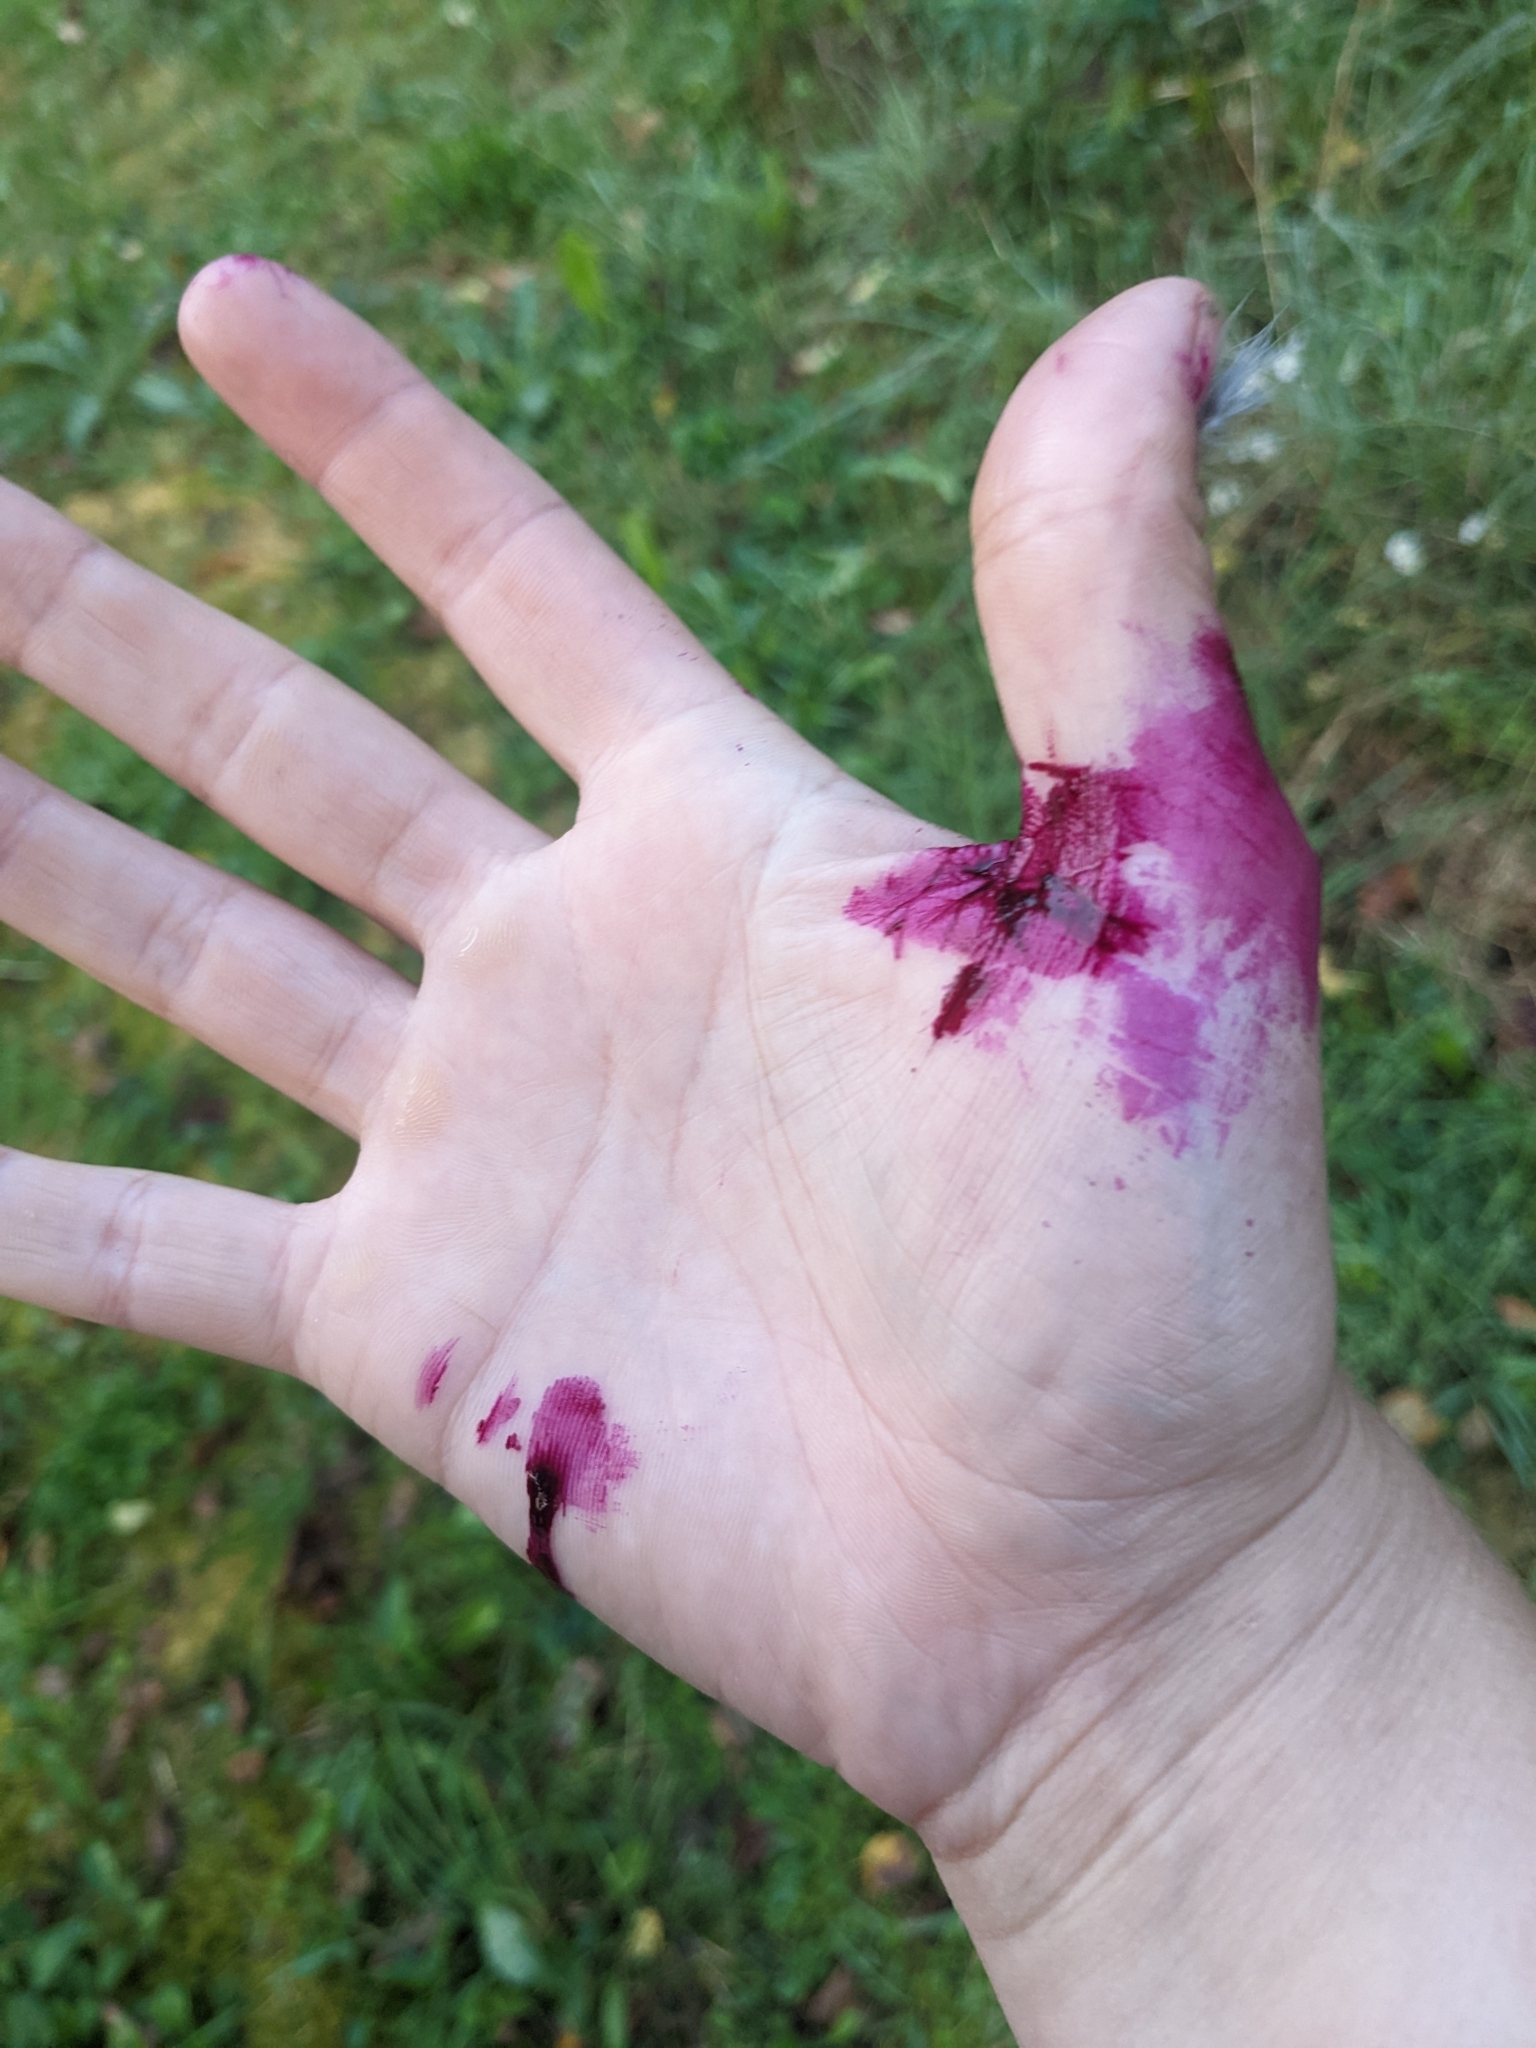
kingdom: Animalia
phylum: Chordata
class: Aves
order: Passeriformes
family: Mimidae
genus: Dumetella
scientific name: Dumetella carolinensis
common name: Gray catbird
